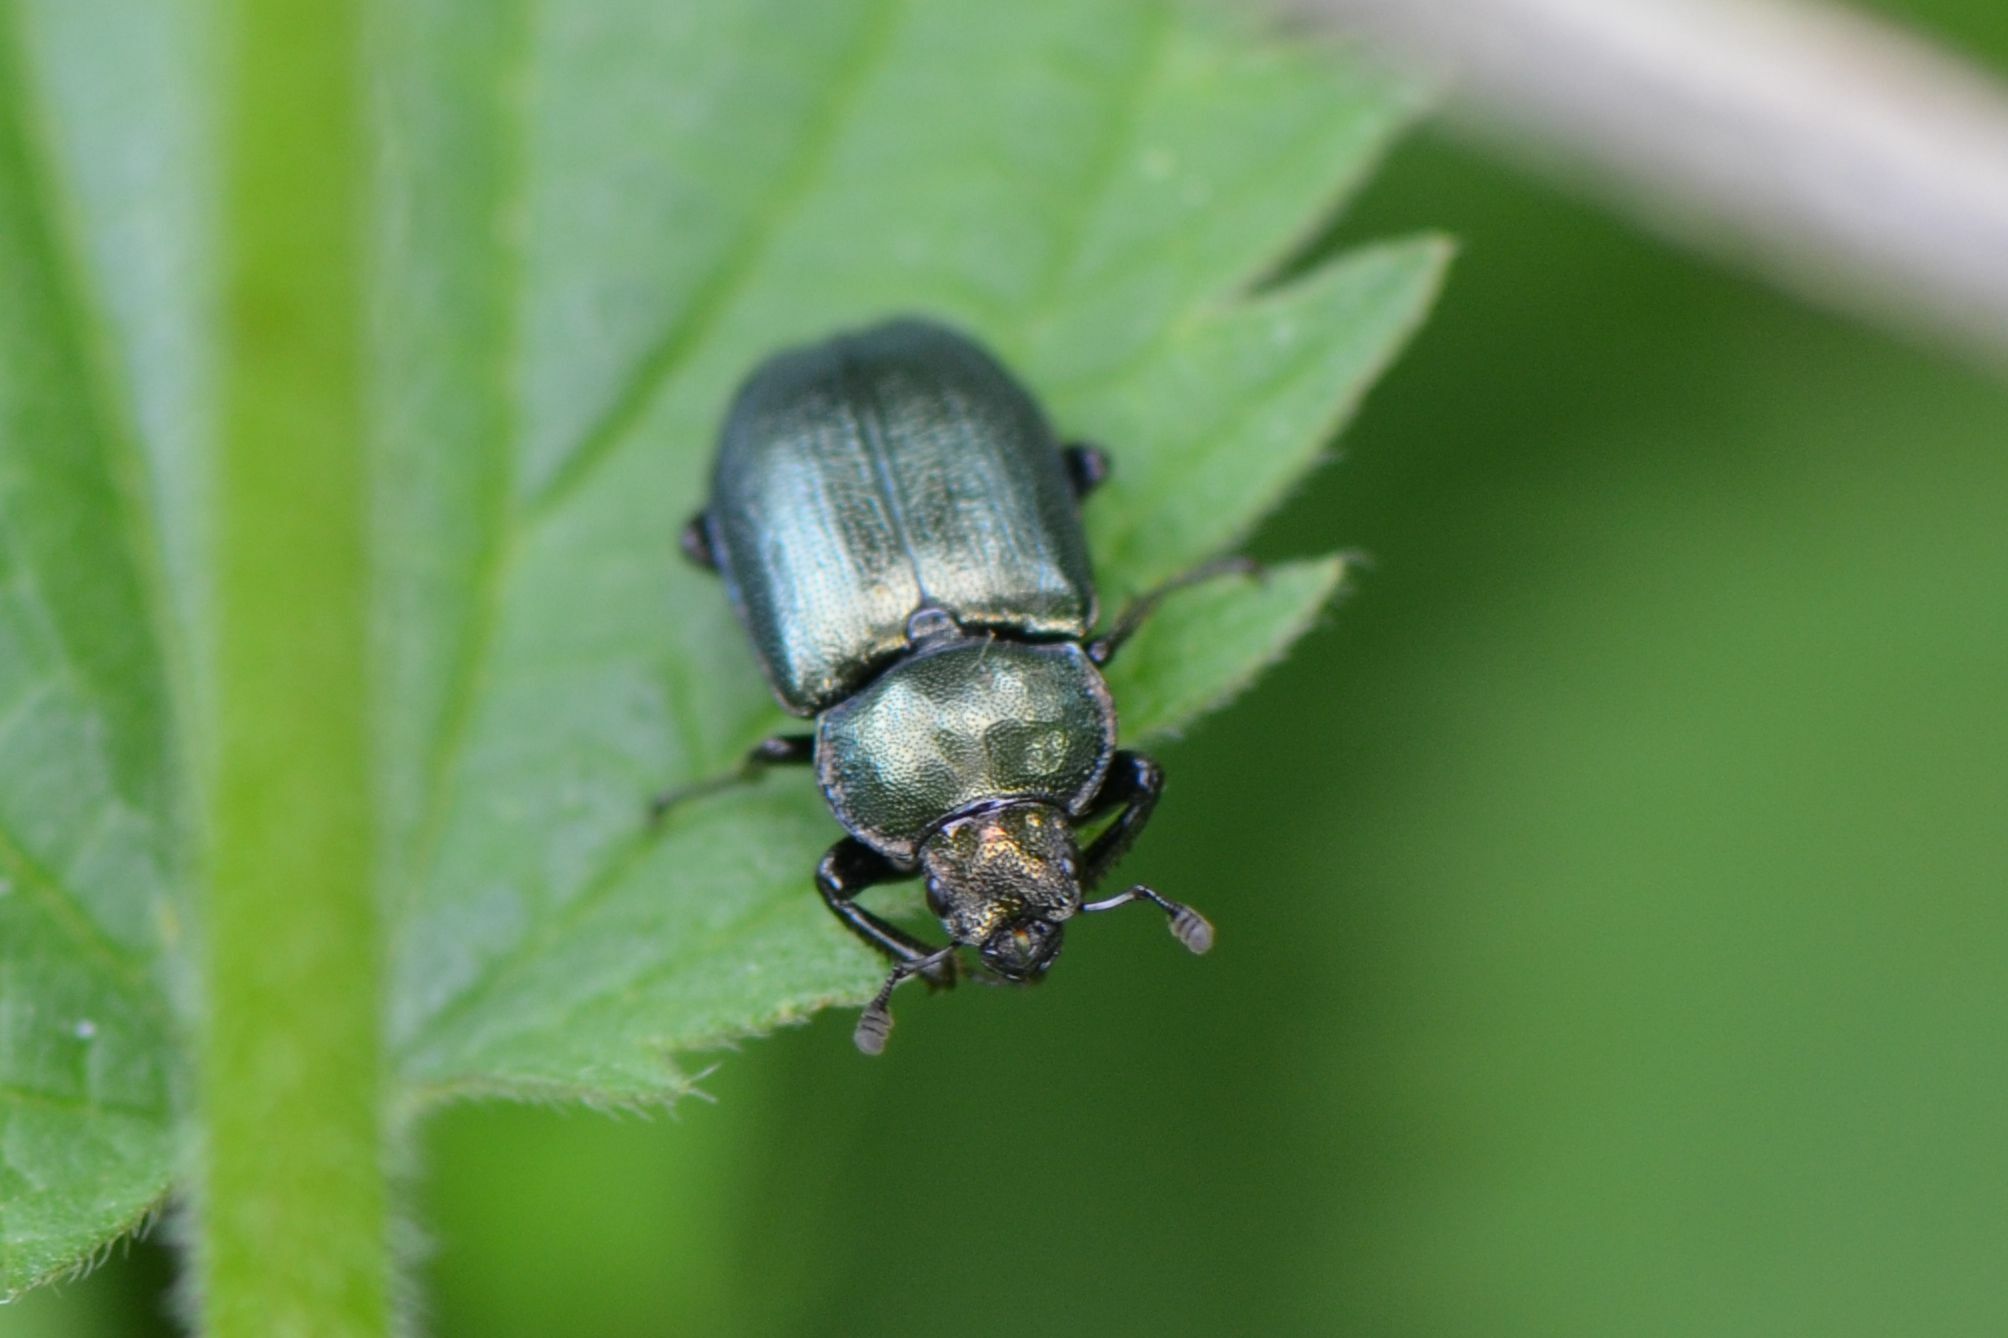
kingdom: Animalia
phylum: Arthropoda
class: Insecta
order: Coleoptera
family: Lucanidae
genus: Platycerus
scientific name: Platycerus caraboides
